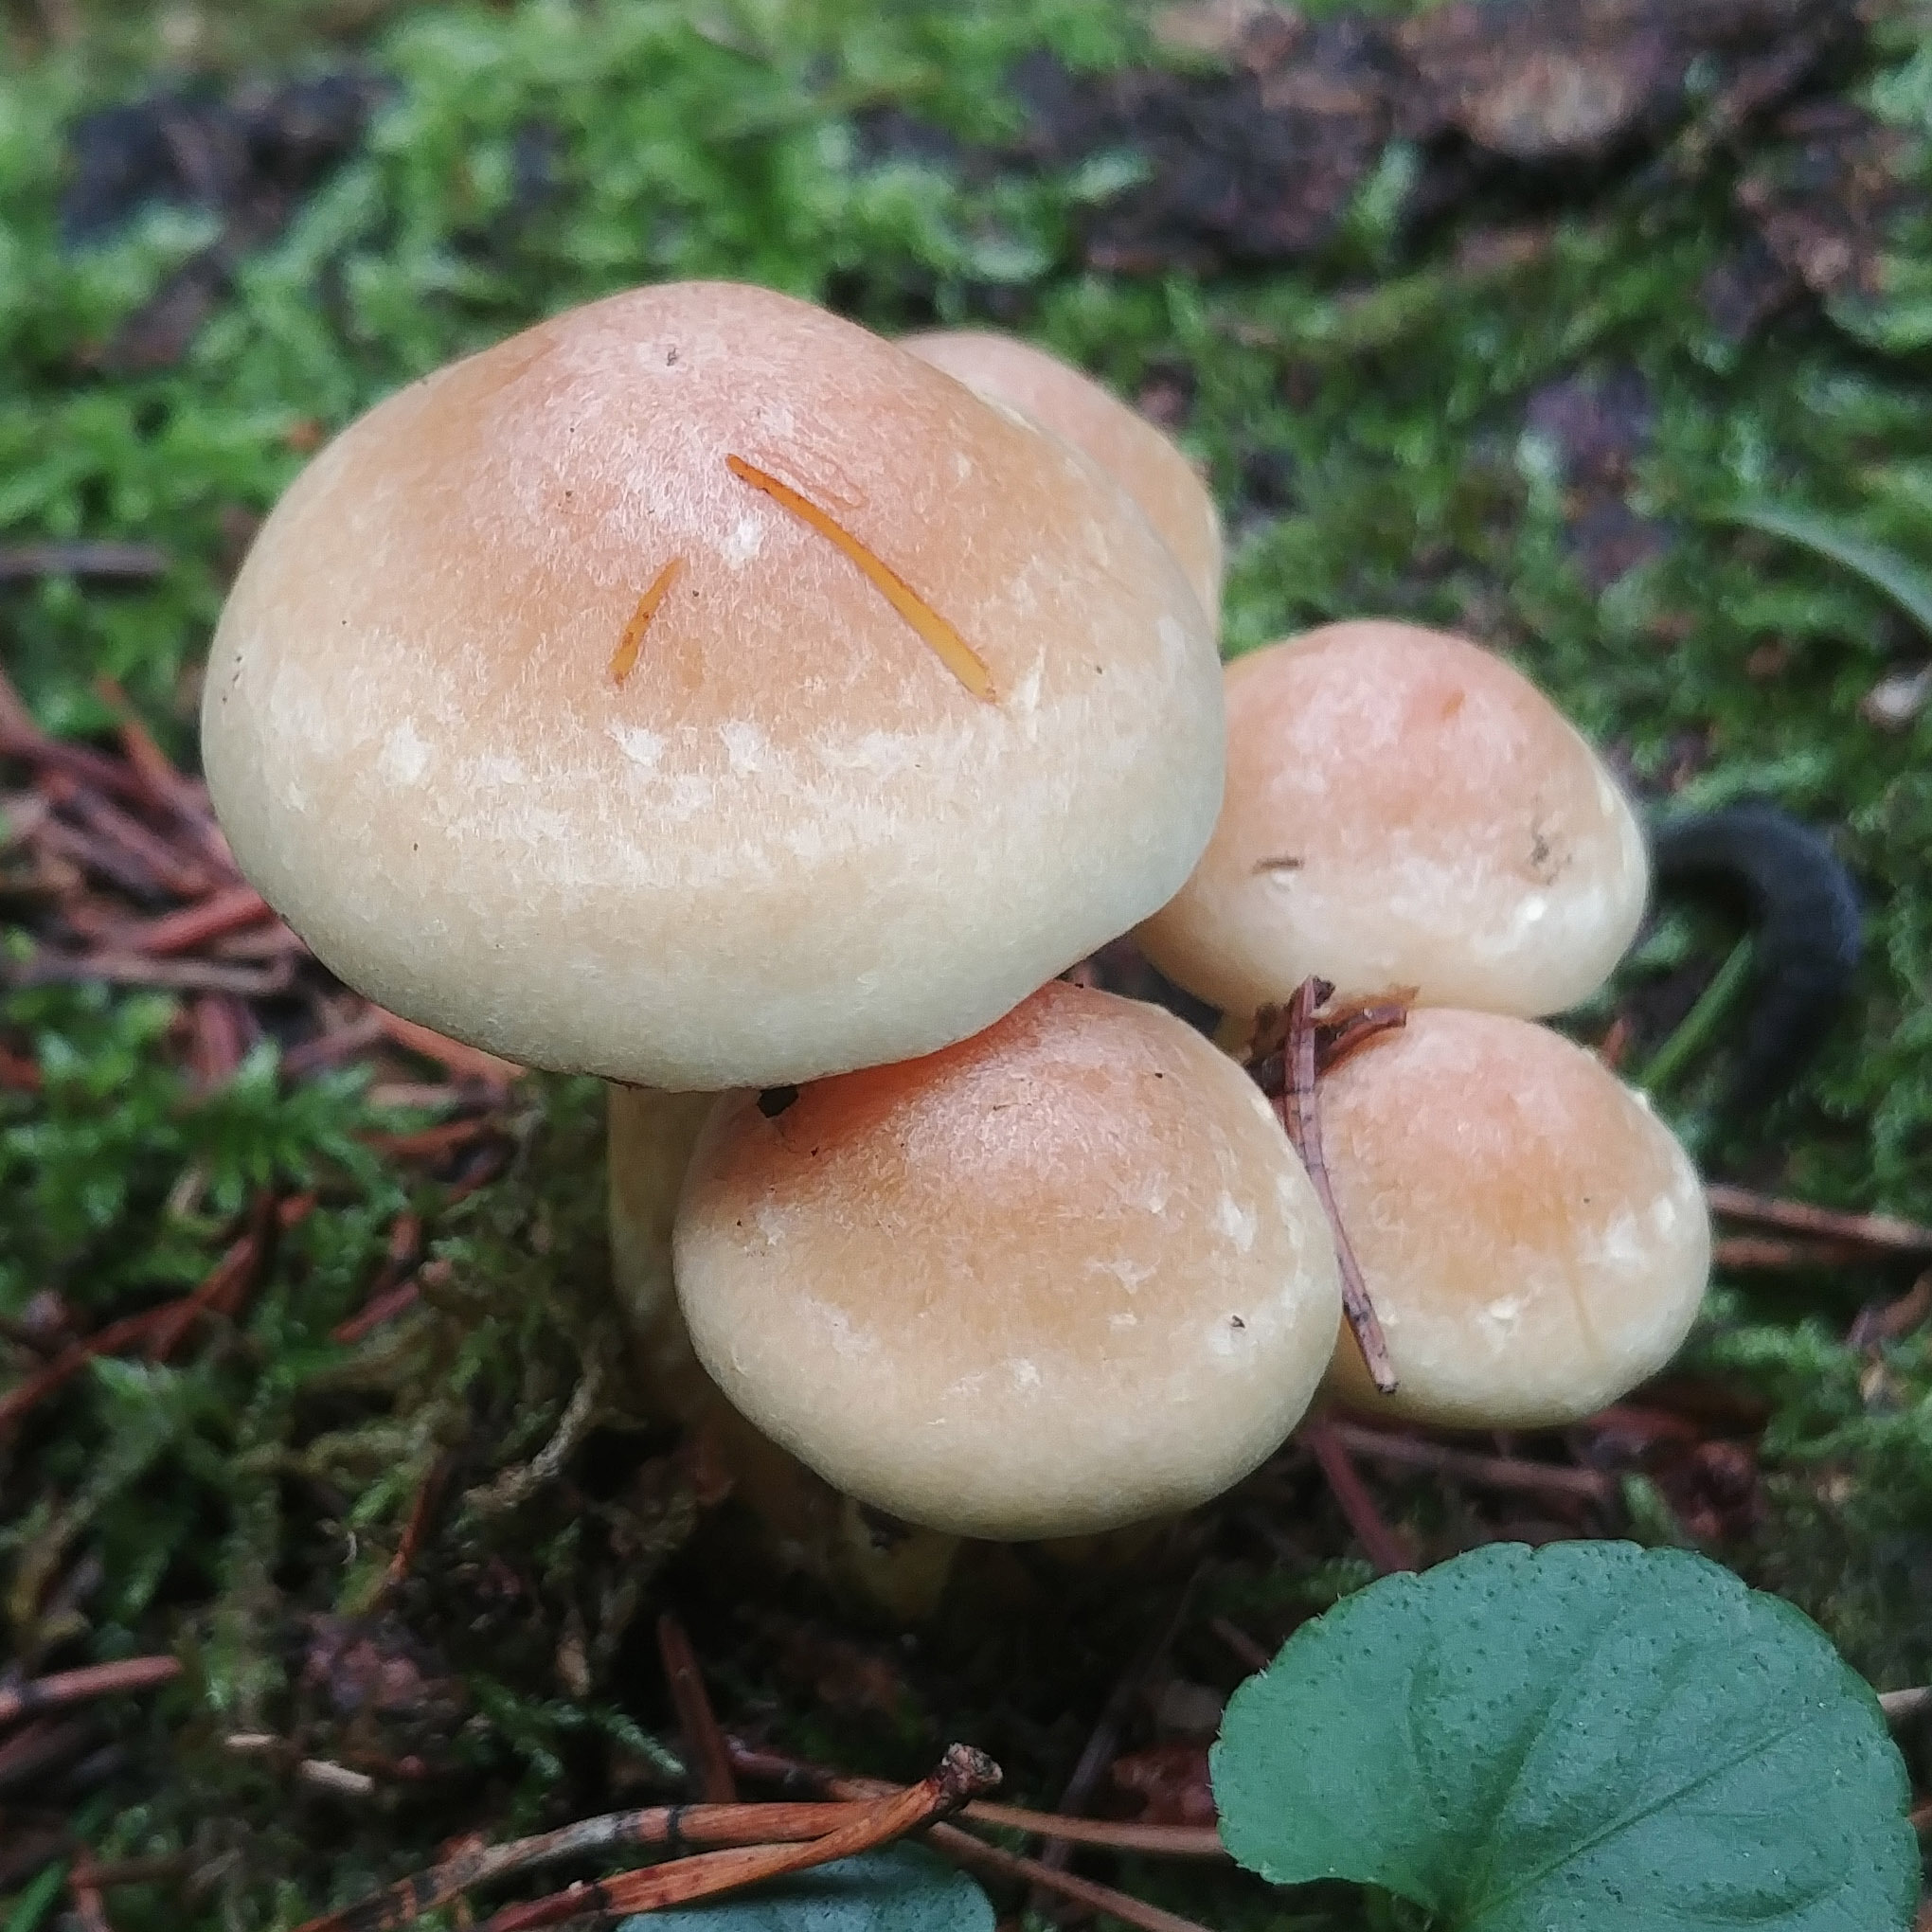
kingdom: Fungi
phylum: Basidiomycota
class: Agaricomycetes
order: Agaricales
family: Strophariaceae
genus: Hypholoma
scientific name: Hypholoma fasciculare
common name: Sulphur tuft
